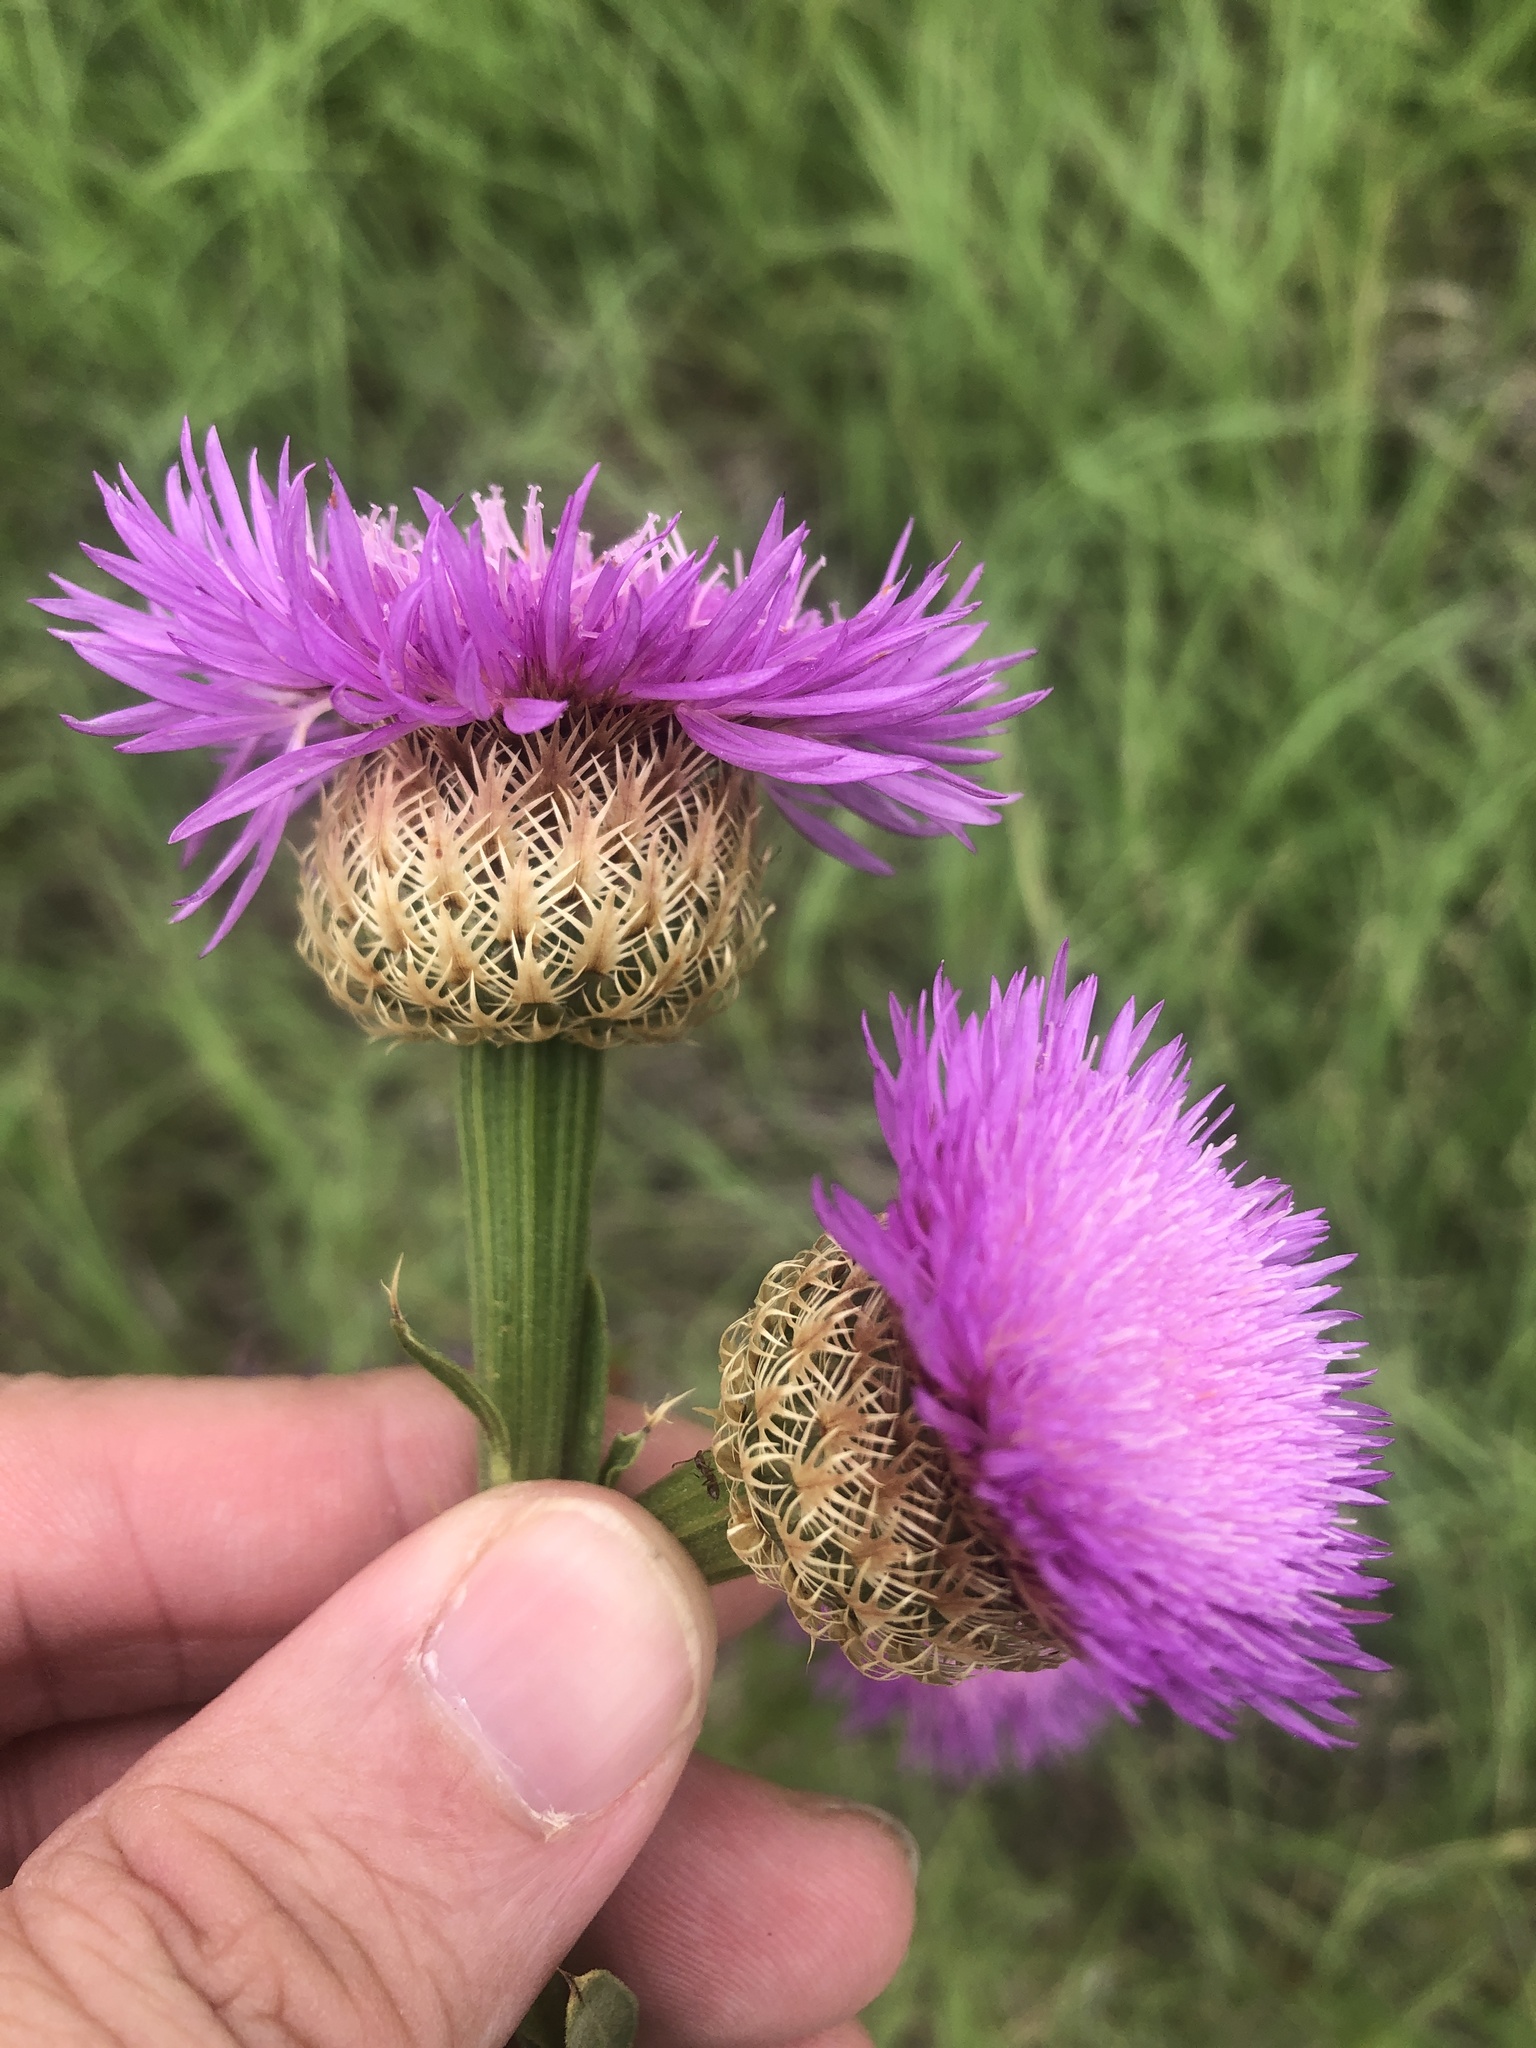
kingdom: Plantae
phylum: Tracheophyta
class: Magnoliopsida
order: Asterales
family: Asteraceae
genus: Plectocephalus
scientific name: Plectocephalus americanus
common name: American basket-flower
